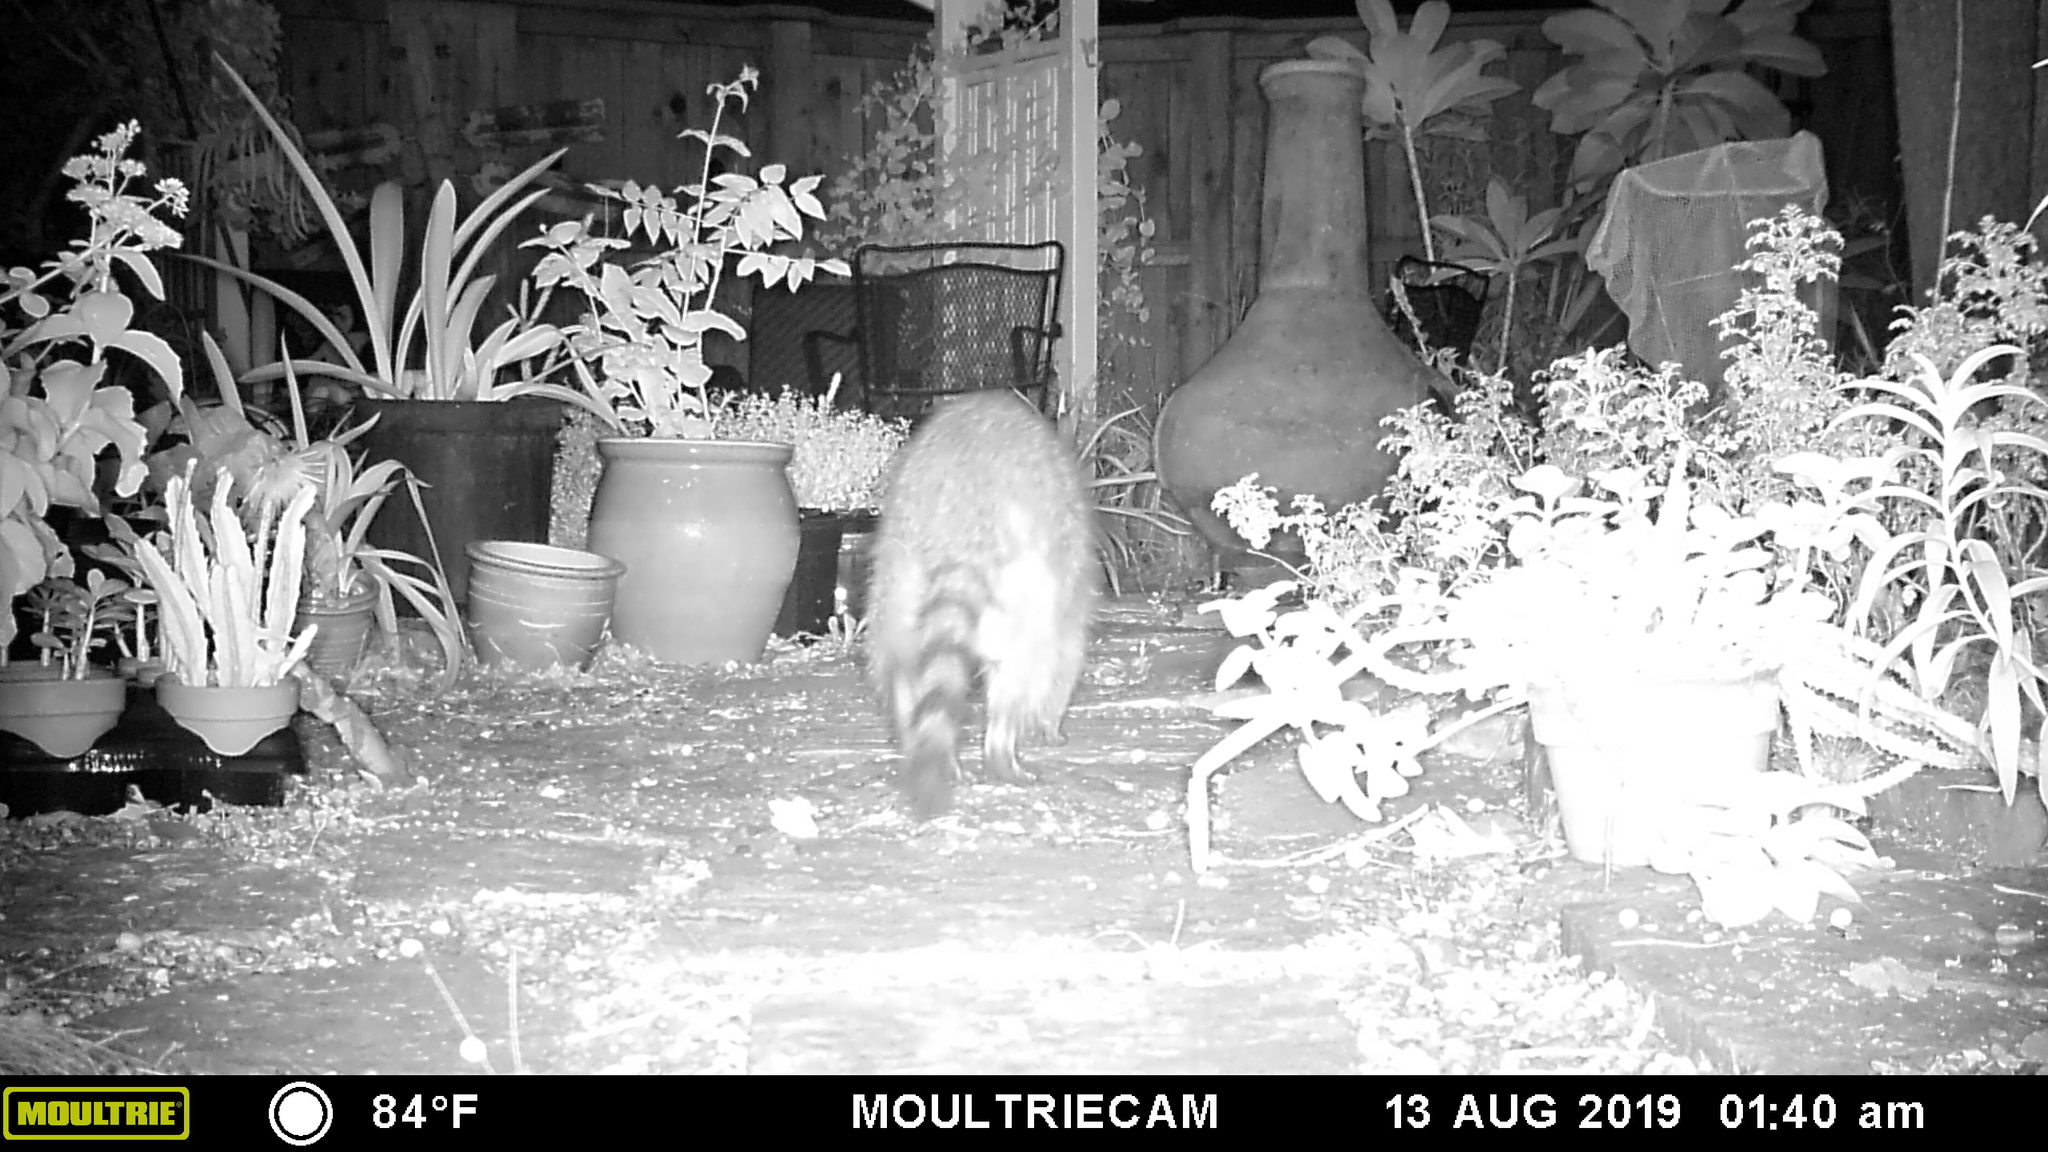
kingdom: Animalia
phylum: Chordata
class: Mammalia
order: Carnivora
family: Procyonidae
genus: Procyon
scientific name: Procyon lotor
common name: Raccoon
